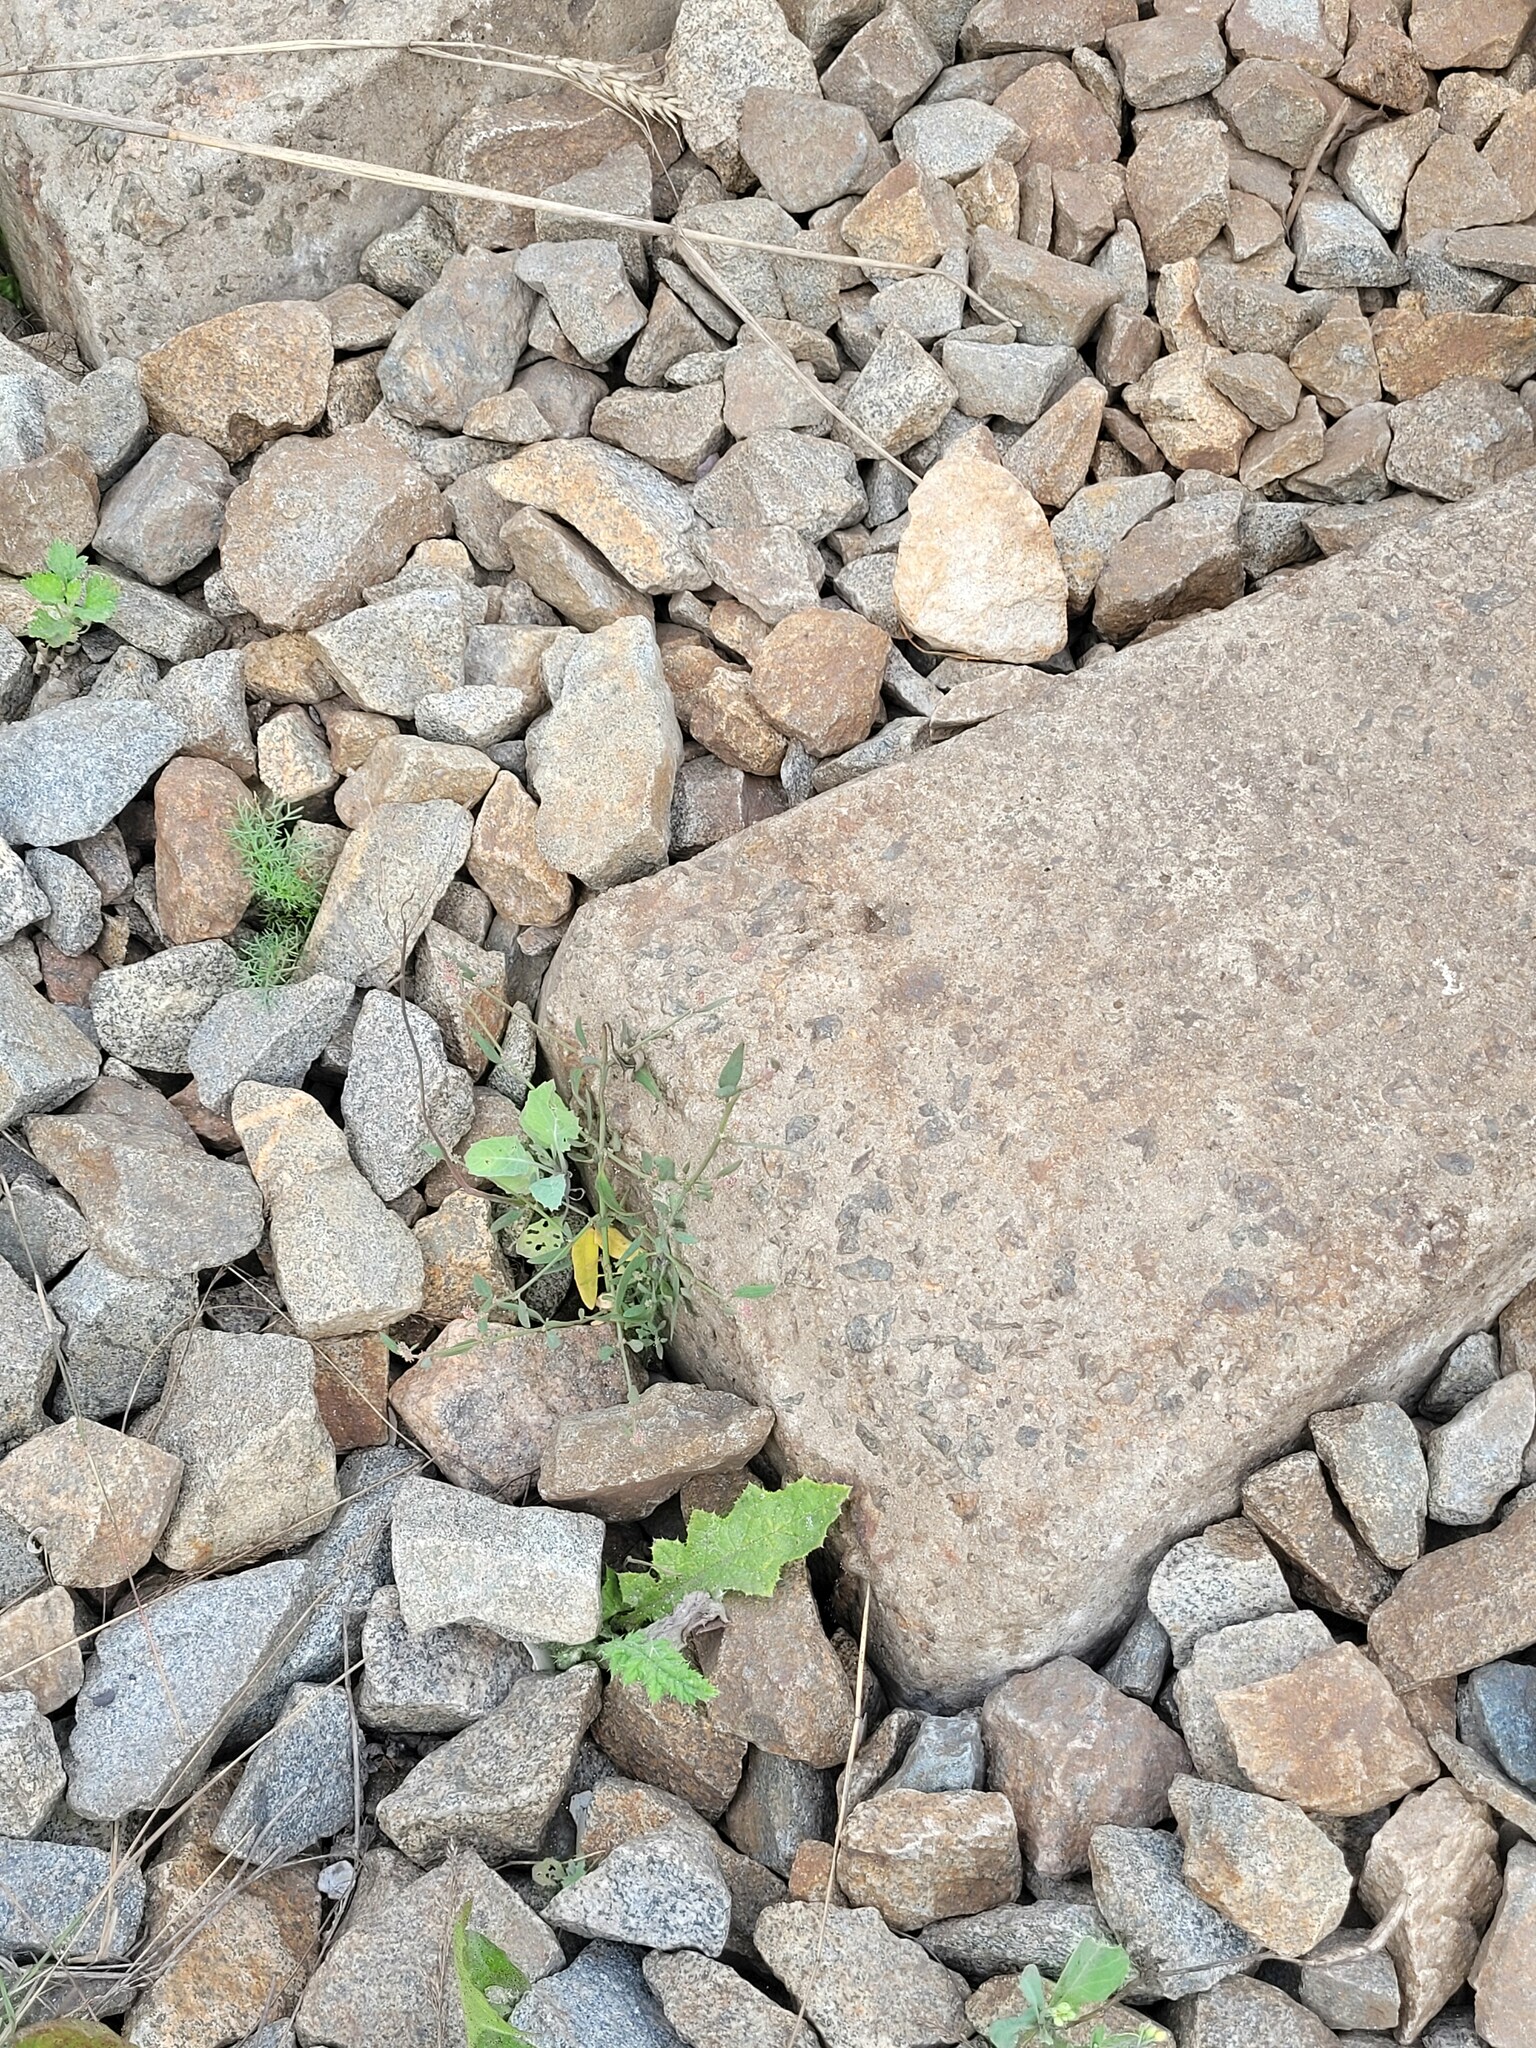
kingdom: Plantae
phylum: Tracheophyta
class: Magnoliopsida
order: Caryophyllales
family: Amaranthaceae
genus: Atriplex
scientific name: Atriplex patula
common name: Common orache
